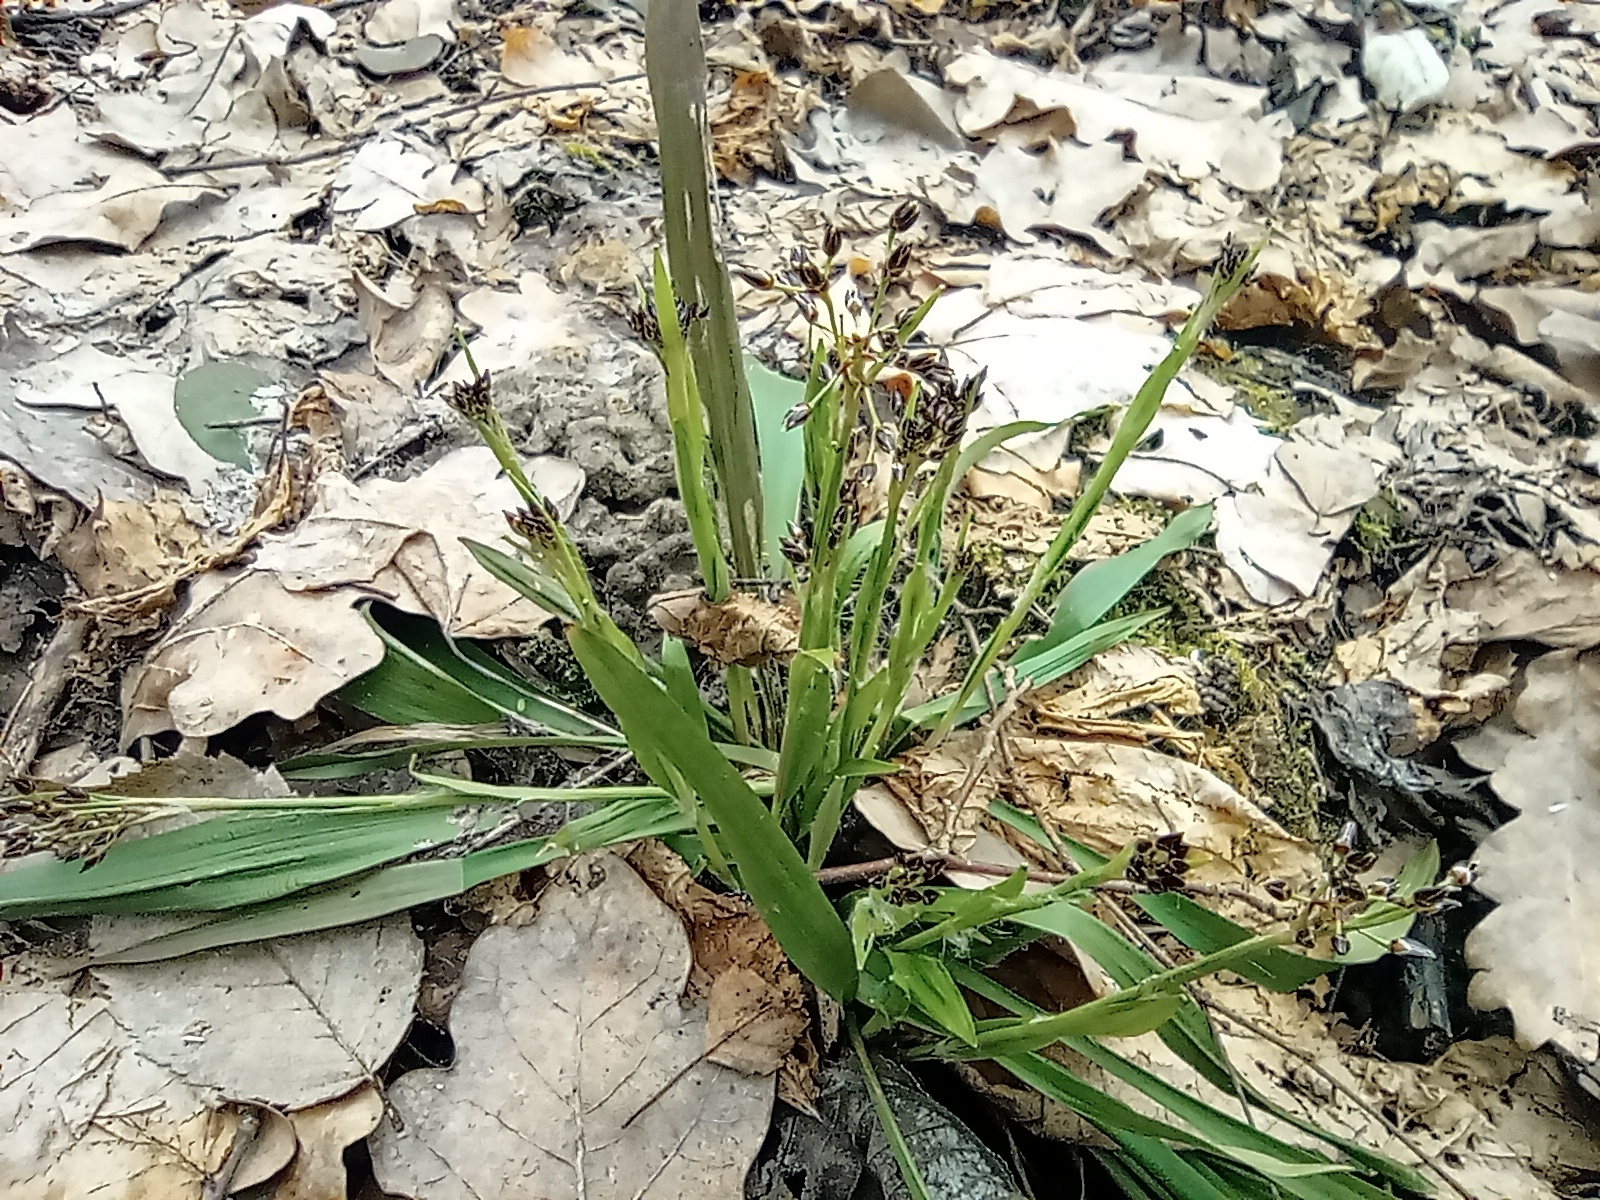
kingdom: Plantae
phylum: Tracheophyta
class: Liliopsida
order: Poales
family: Juncaceae
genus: Luzula
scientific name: Luzula pilosa
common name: Hairy wood-rush
